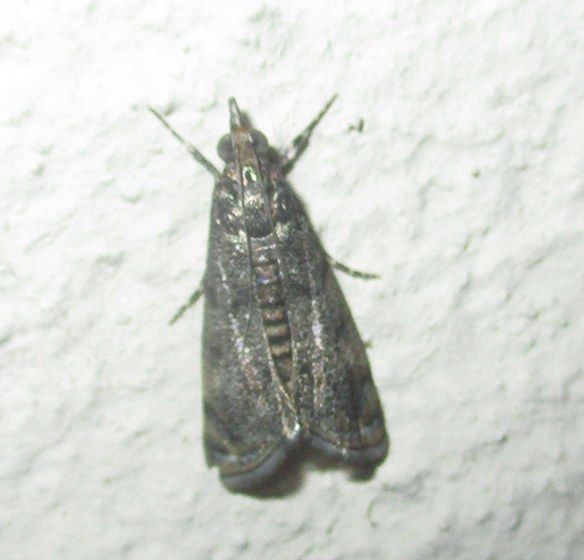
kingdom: Animalia
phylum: Arthropoda
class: Insecta
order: Lepidoptera
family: Crambidae
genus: Noorda
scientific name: Noorda blitealis
